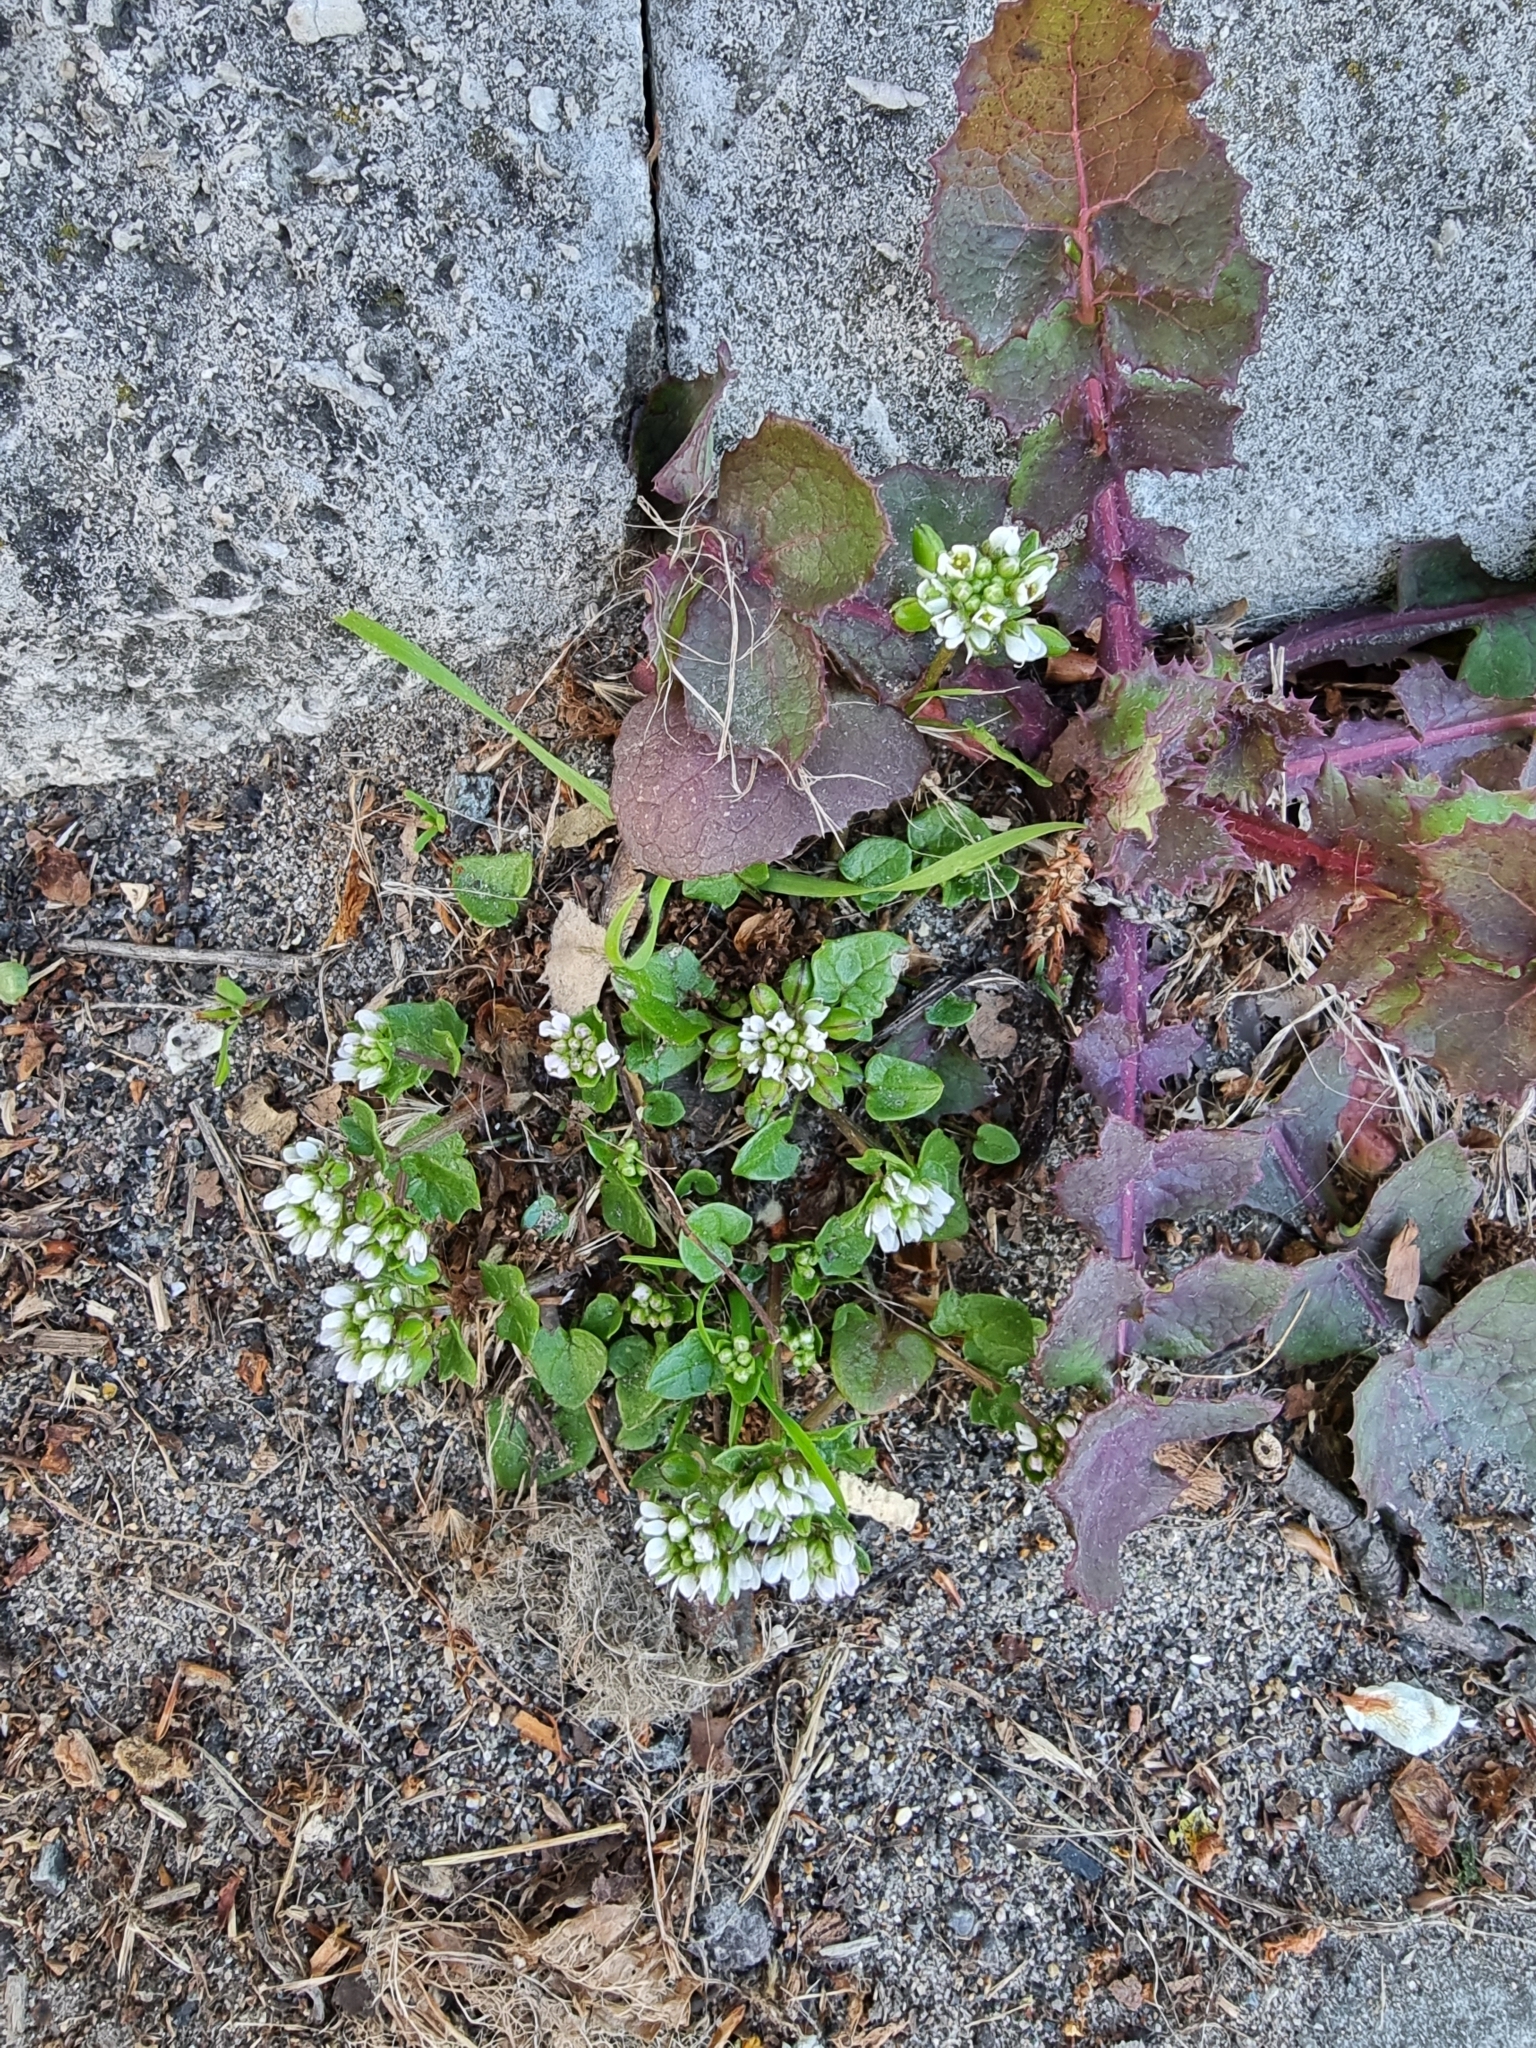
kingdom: Plantae
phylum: Tracheophyta
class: Magnoliopsida
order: Brassicales
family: Brassicaceae
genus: Cochlearia
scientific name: Cochlearia danica
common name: Early scurvygrass
